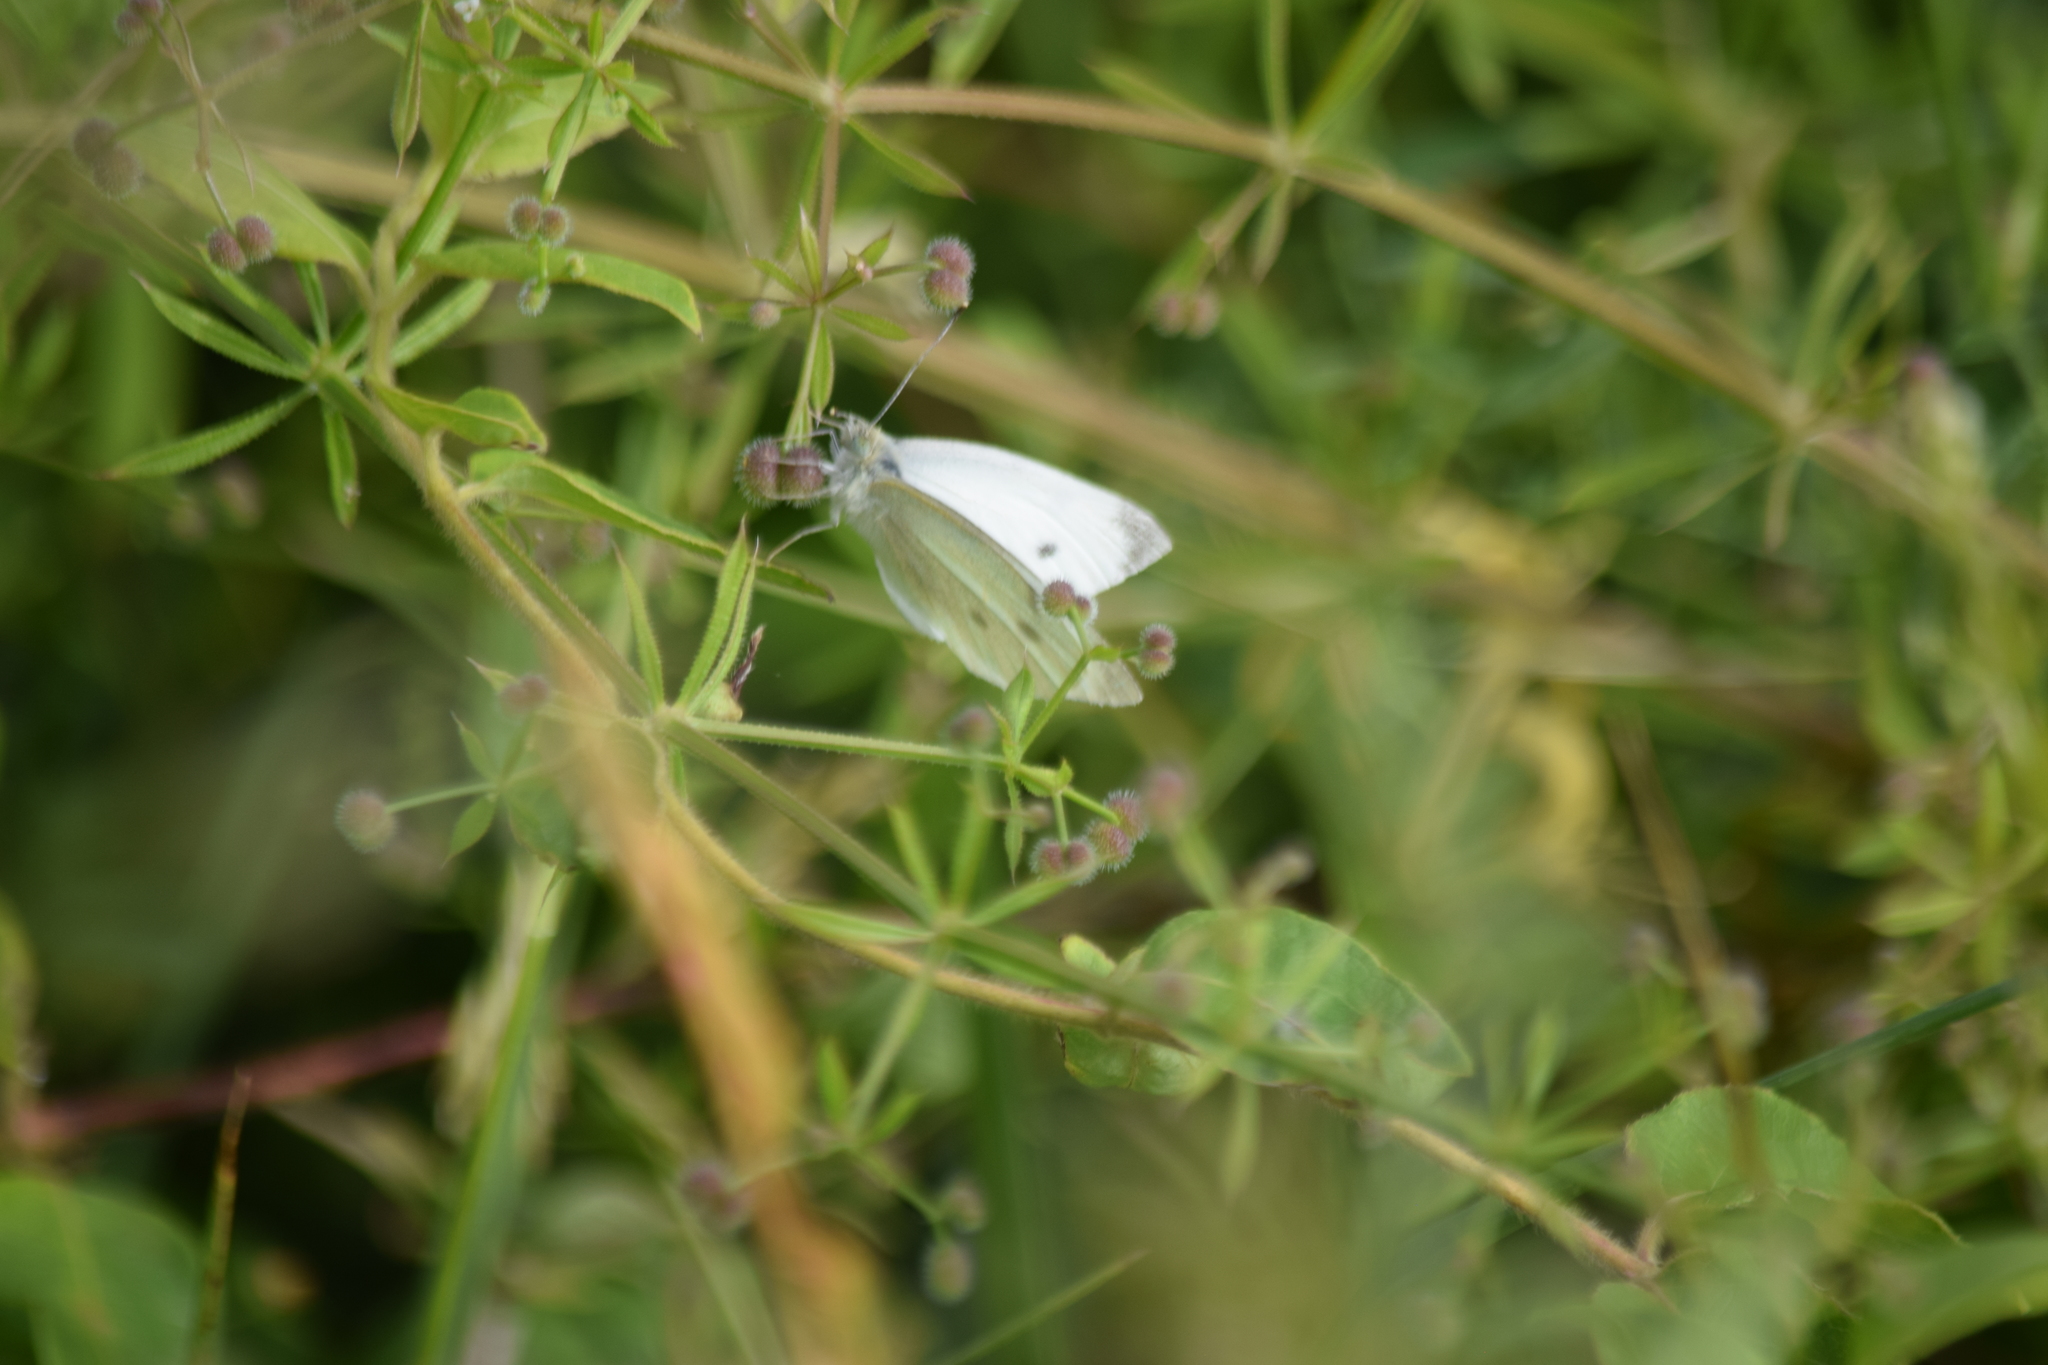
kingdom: Animalia
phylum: Arthropoda
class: Insecta
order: Lepidoptera
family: Pieridae
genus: Pieris
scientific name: Pieris rapae
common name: Small white
